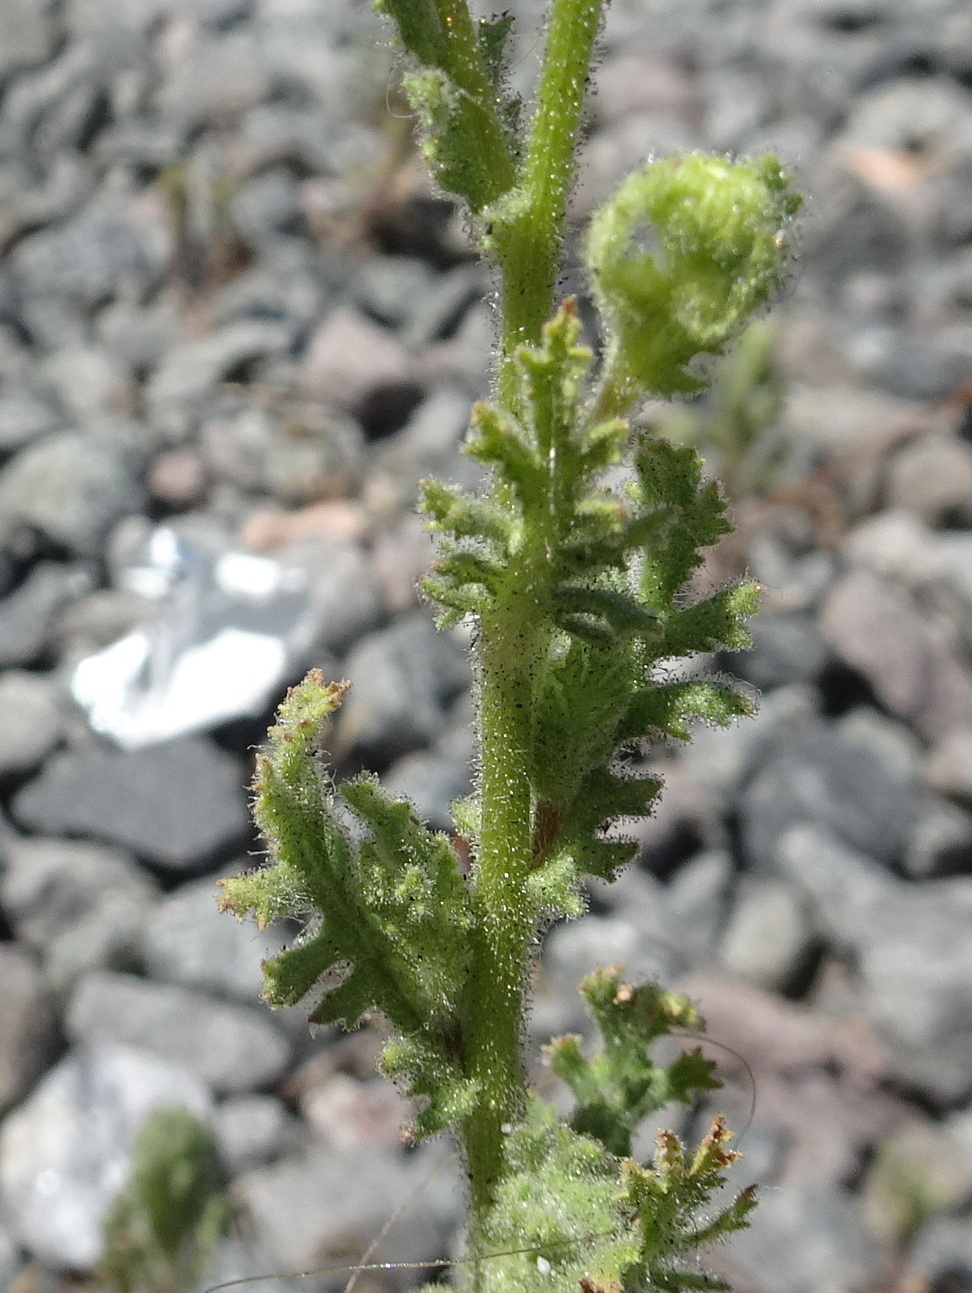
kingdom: Plantae
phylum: Tracheophyta
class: Magnoliopsida
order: Asterales
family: Asteraceae
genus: Senecio
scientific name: Senecio viscosus
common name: Sticky groundsel
